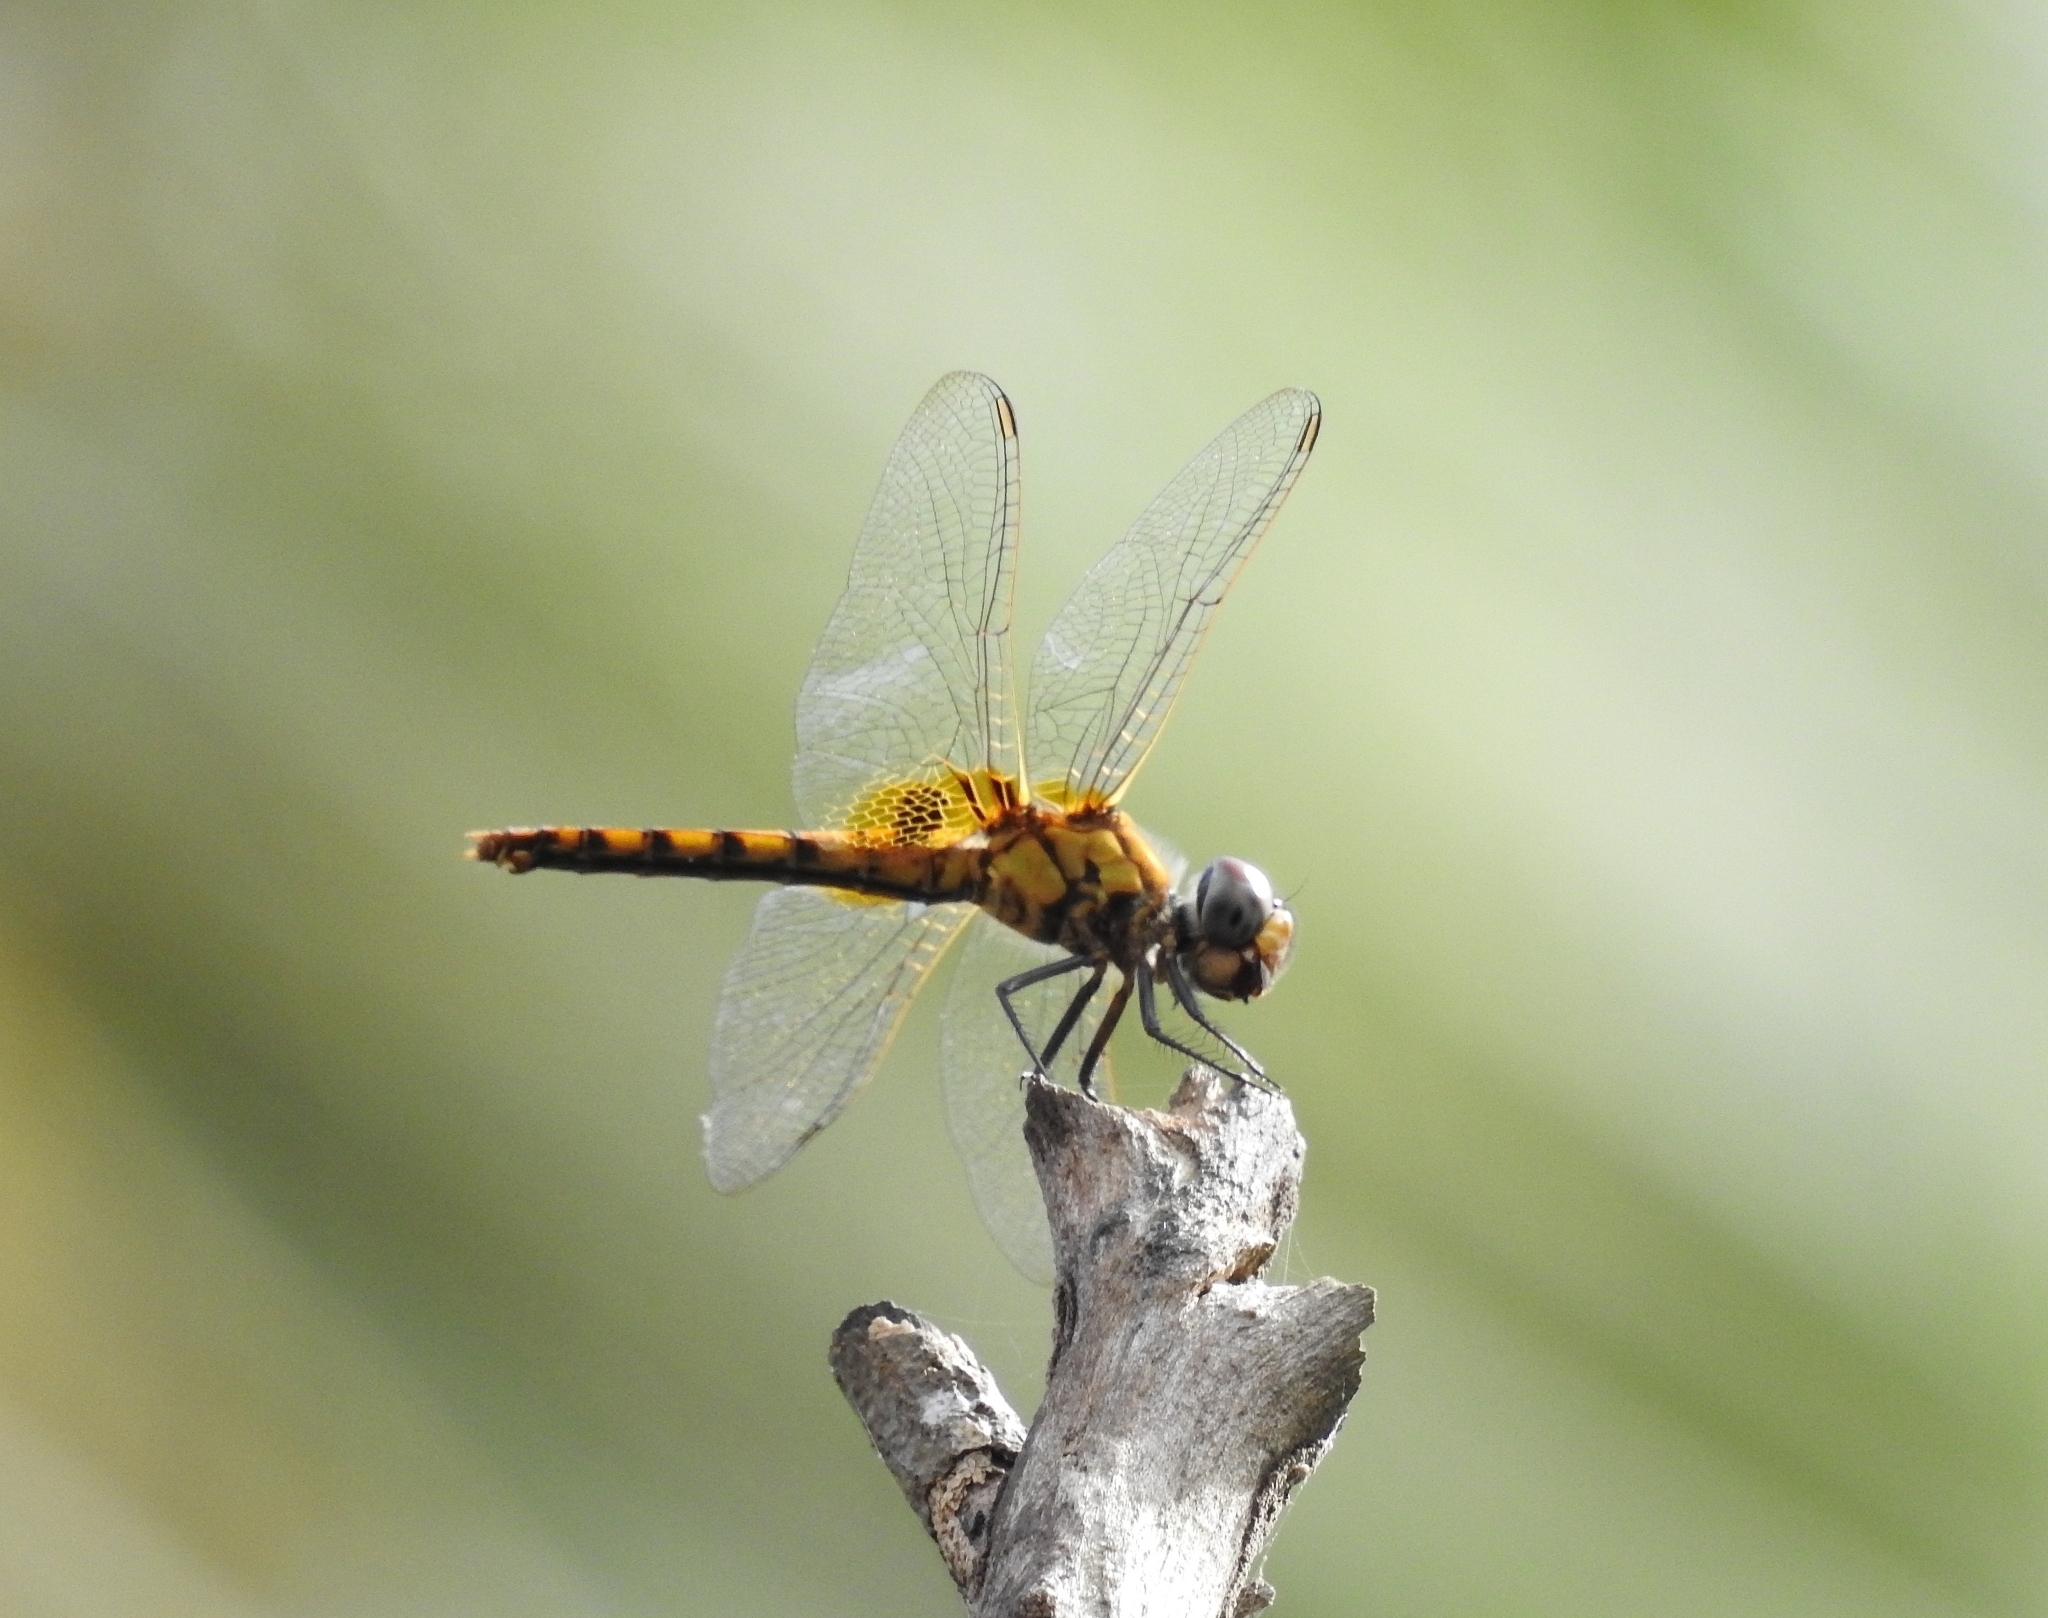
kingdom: Animalia
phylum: Arthropoda
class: Insecta
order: Odonata
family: Libellulidae
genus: Urothemis
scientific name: Urothemis signata
